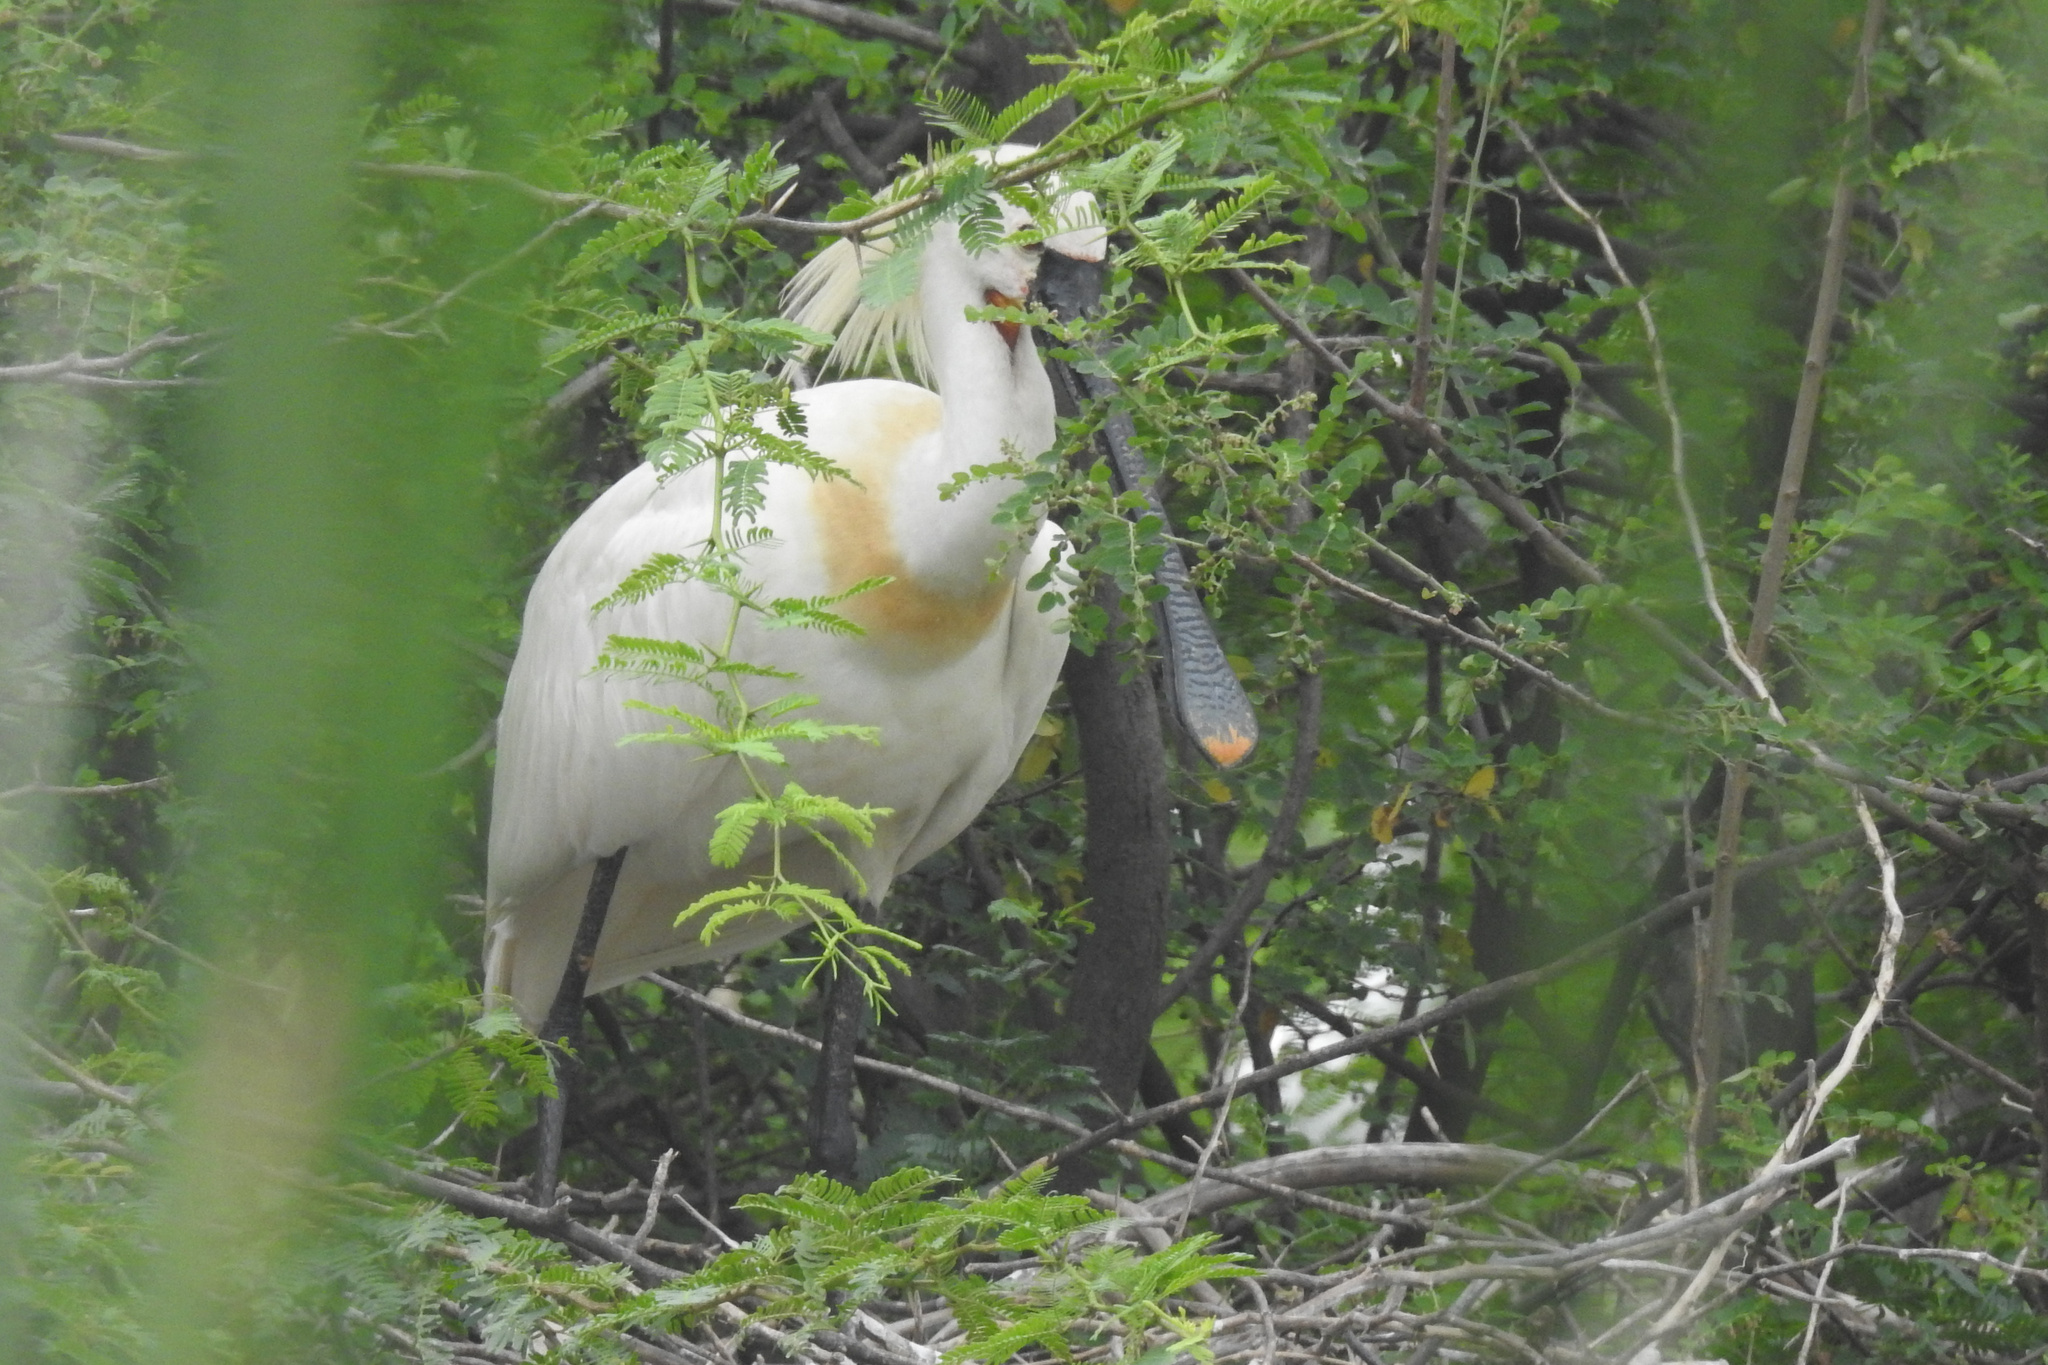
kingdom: Animalia
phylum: Chordata
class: Aves
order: Pelecaniformes
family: Threskiornithidae
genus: Platalea
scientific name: Platalea leucorodia
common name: Eurasian spoonbill
